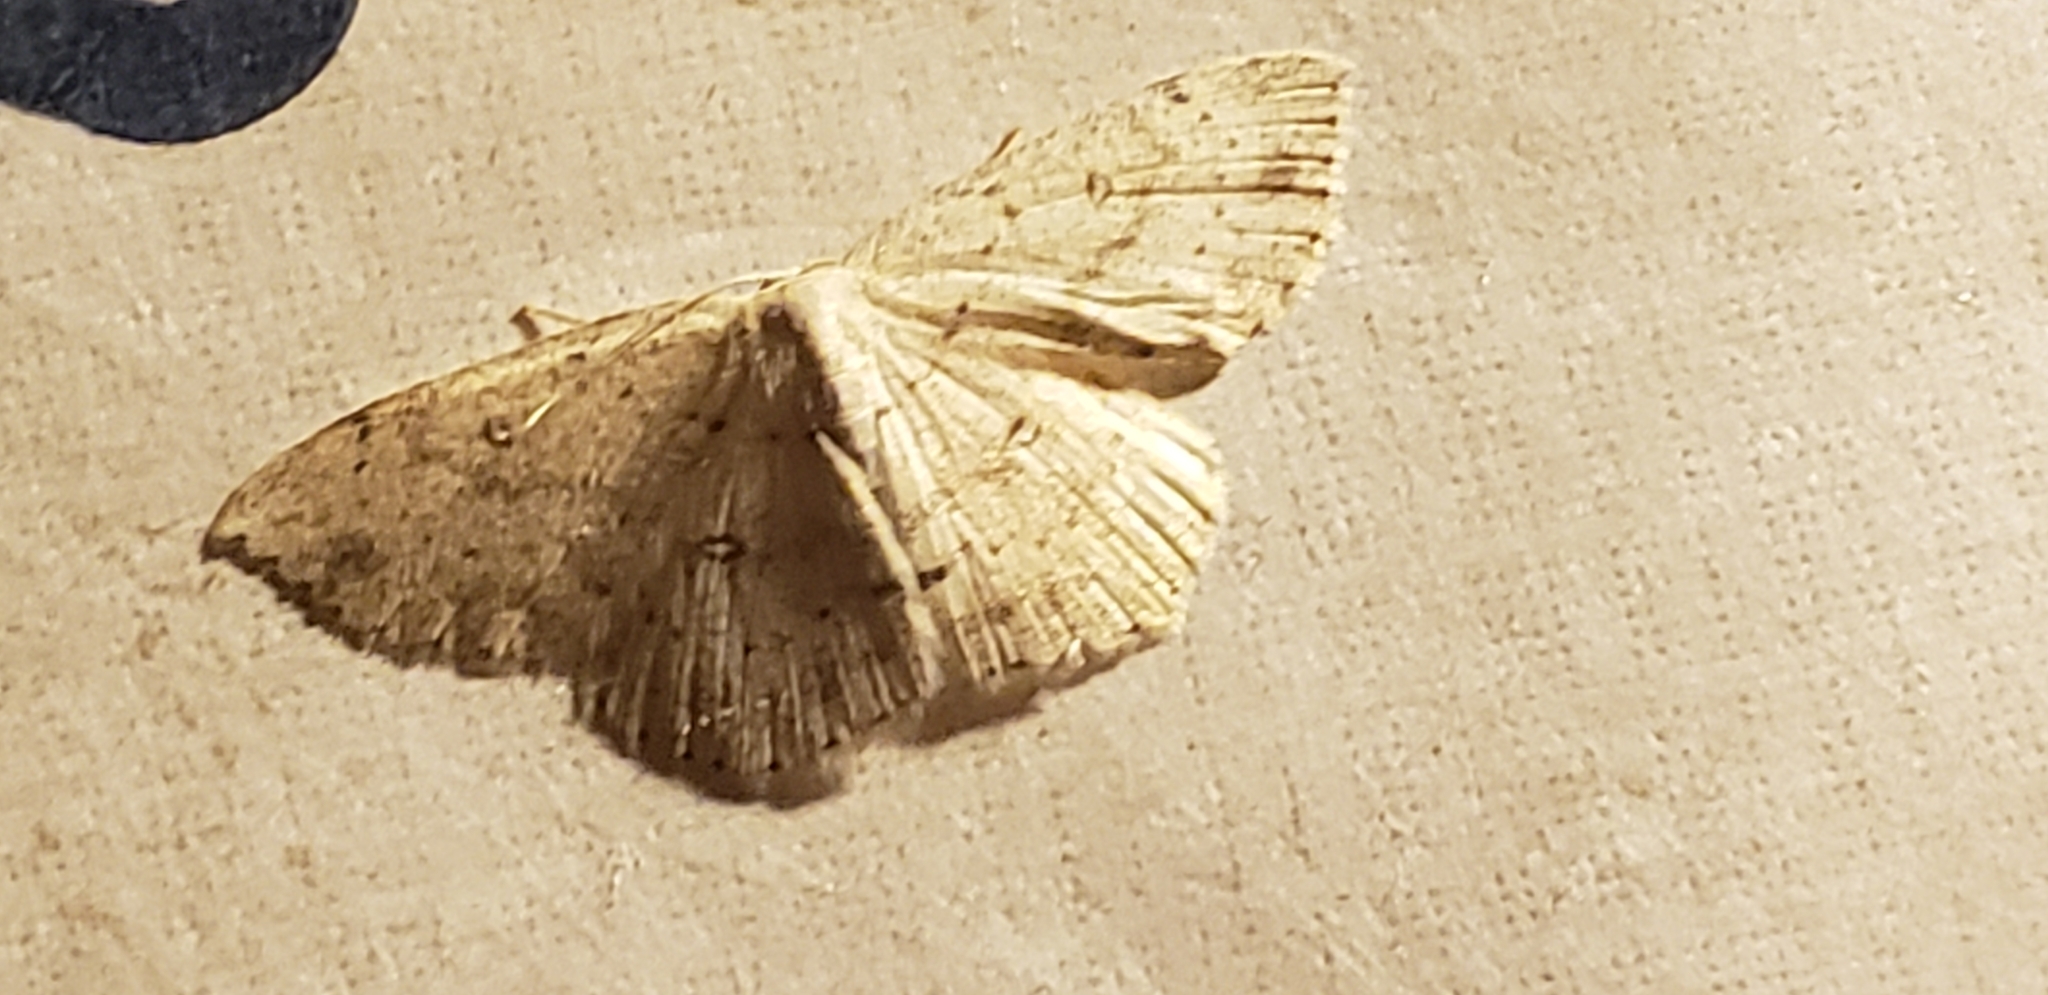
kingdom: Animalia
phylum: Arthropoda
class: Insecta
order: Lepidoptera
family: Geometridae
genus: Cyclophora
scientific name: Cyclophora pendulinaria
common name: Sweet fern geometer
